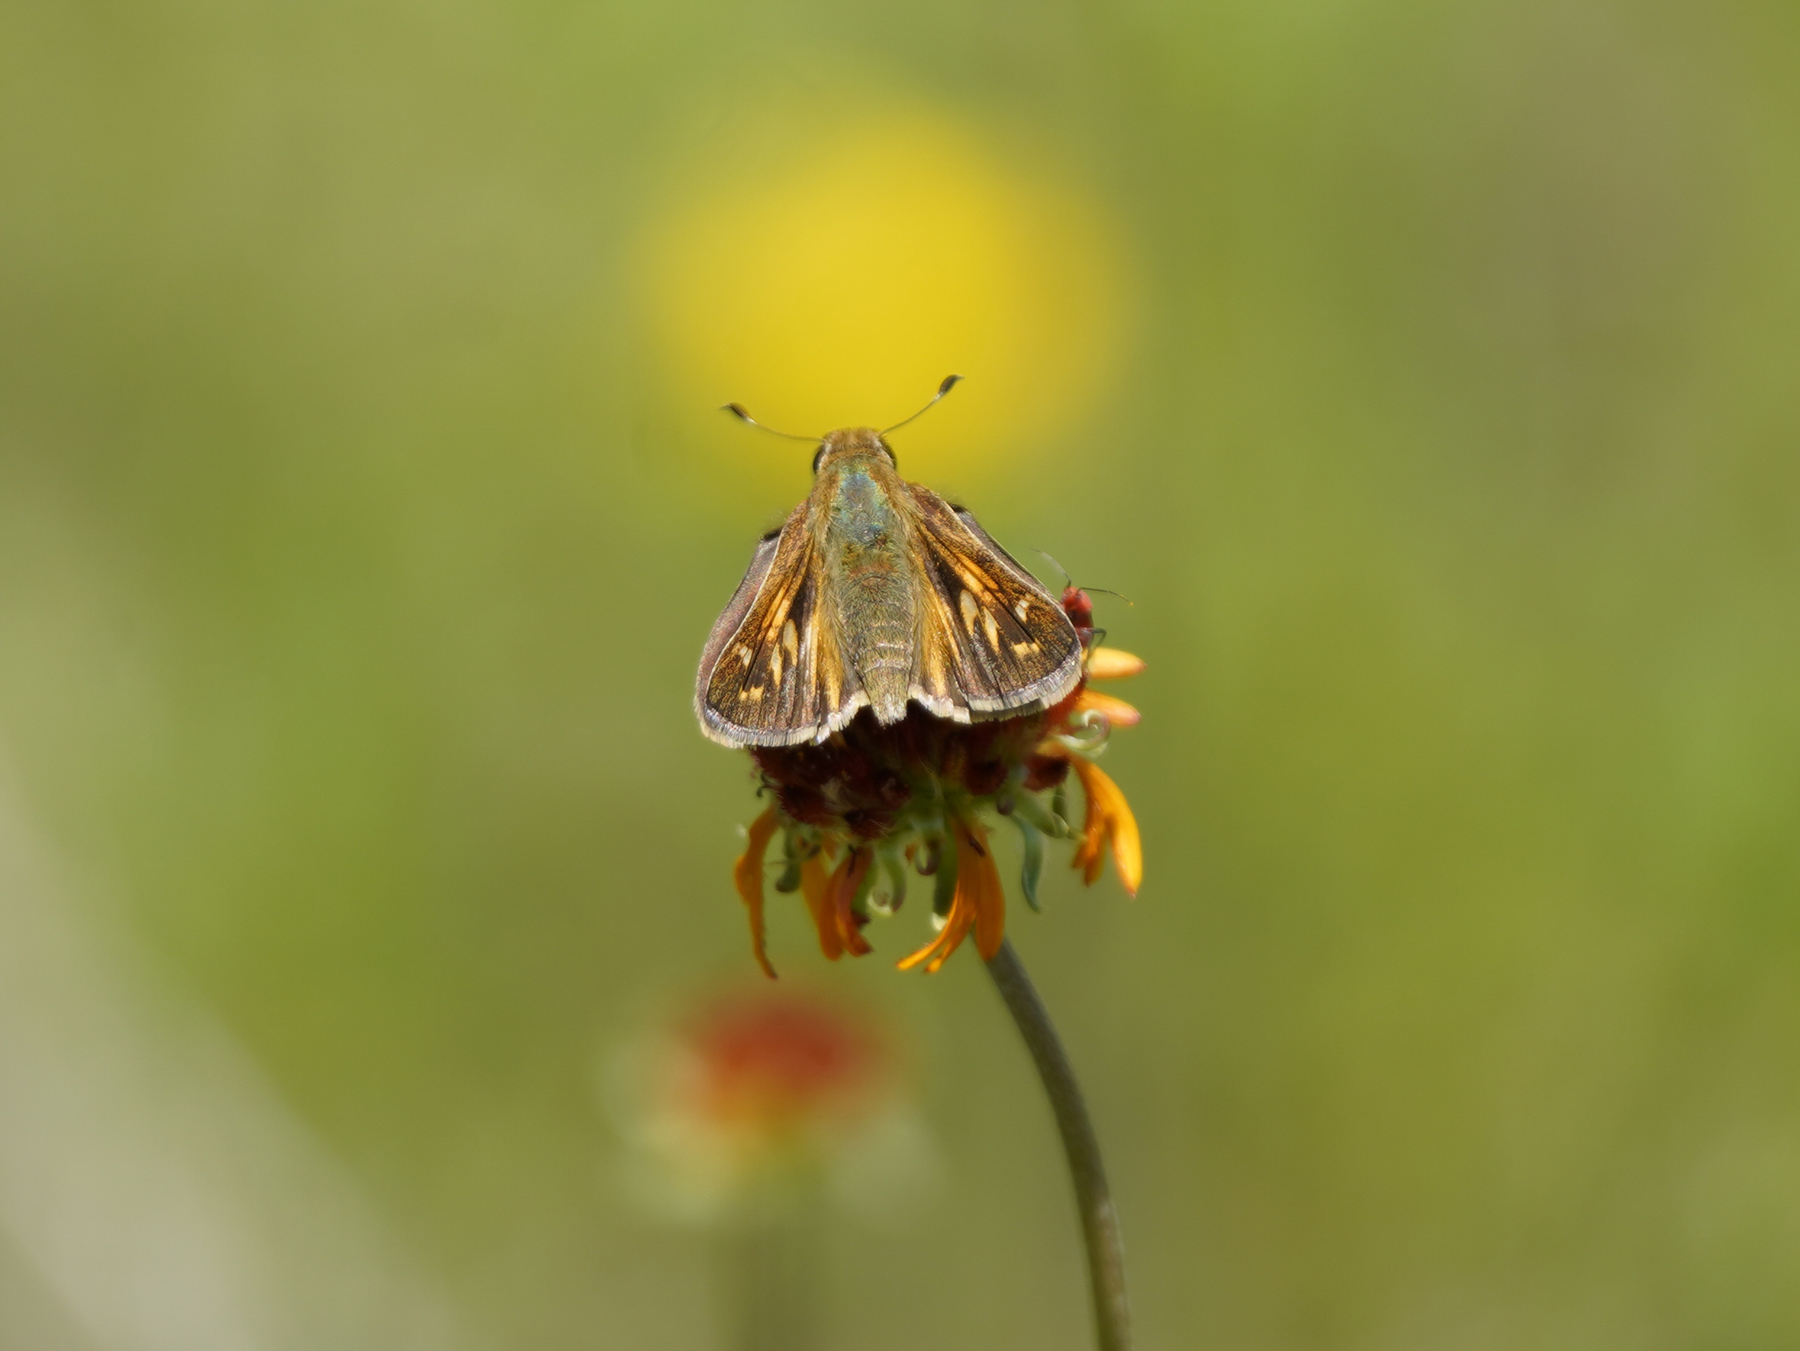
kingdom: Animalia
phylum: Arthropoda
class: Insecta
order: Lepidoptera
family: Hesperiidae
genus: Atalopedes
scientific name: Atalopedes
